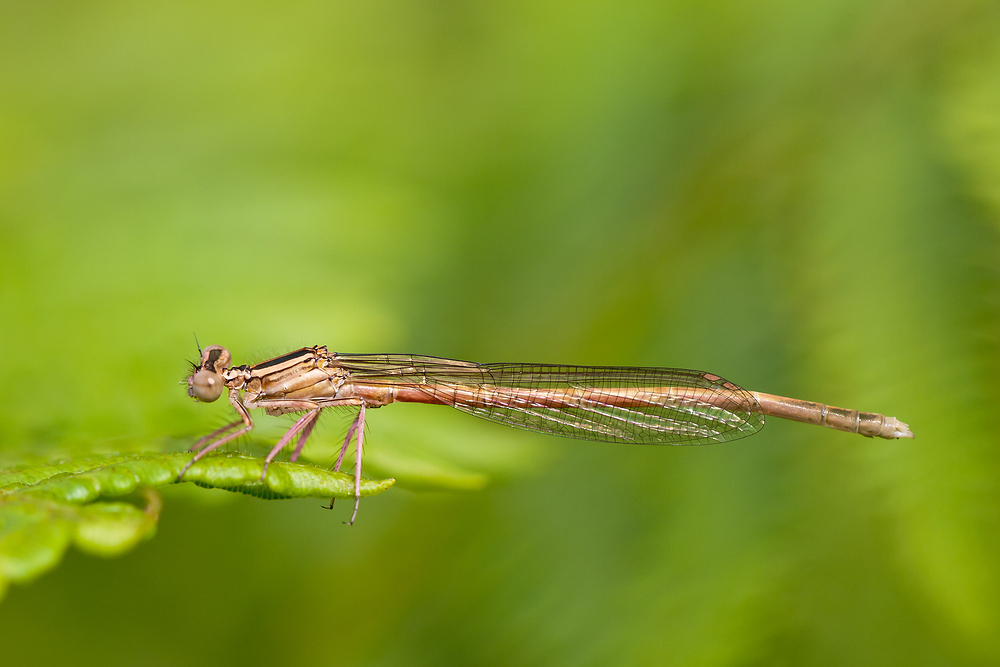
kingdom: Animalia
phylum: Arthropoda
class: Insecta
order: Odonata
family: Platycnemididae
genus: Platycnemis
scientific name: Platycnemis acutipennis
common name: Orange featherleg
